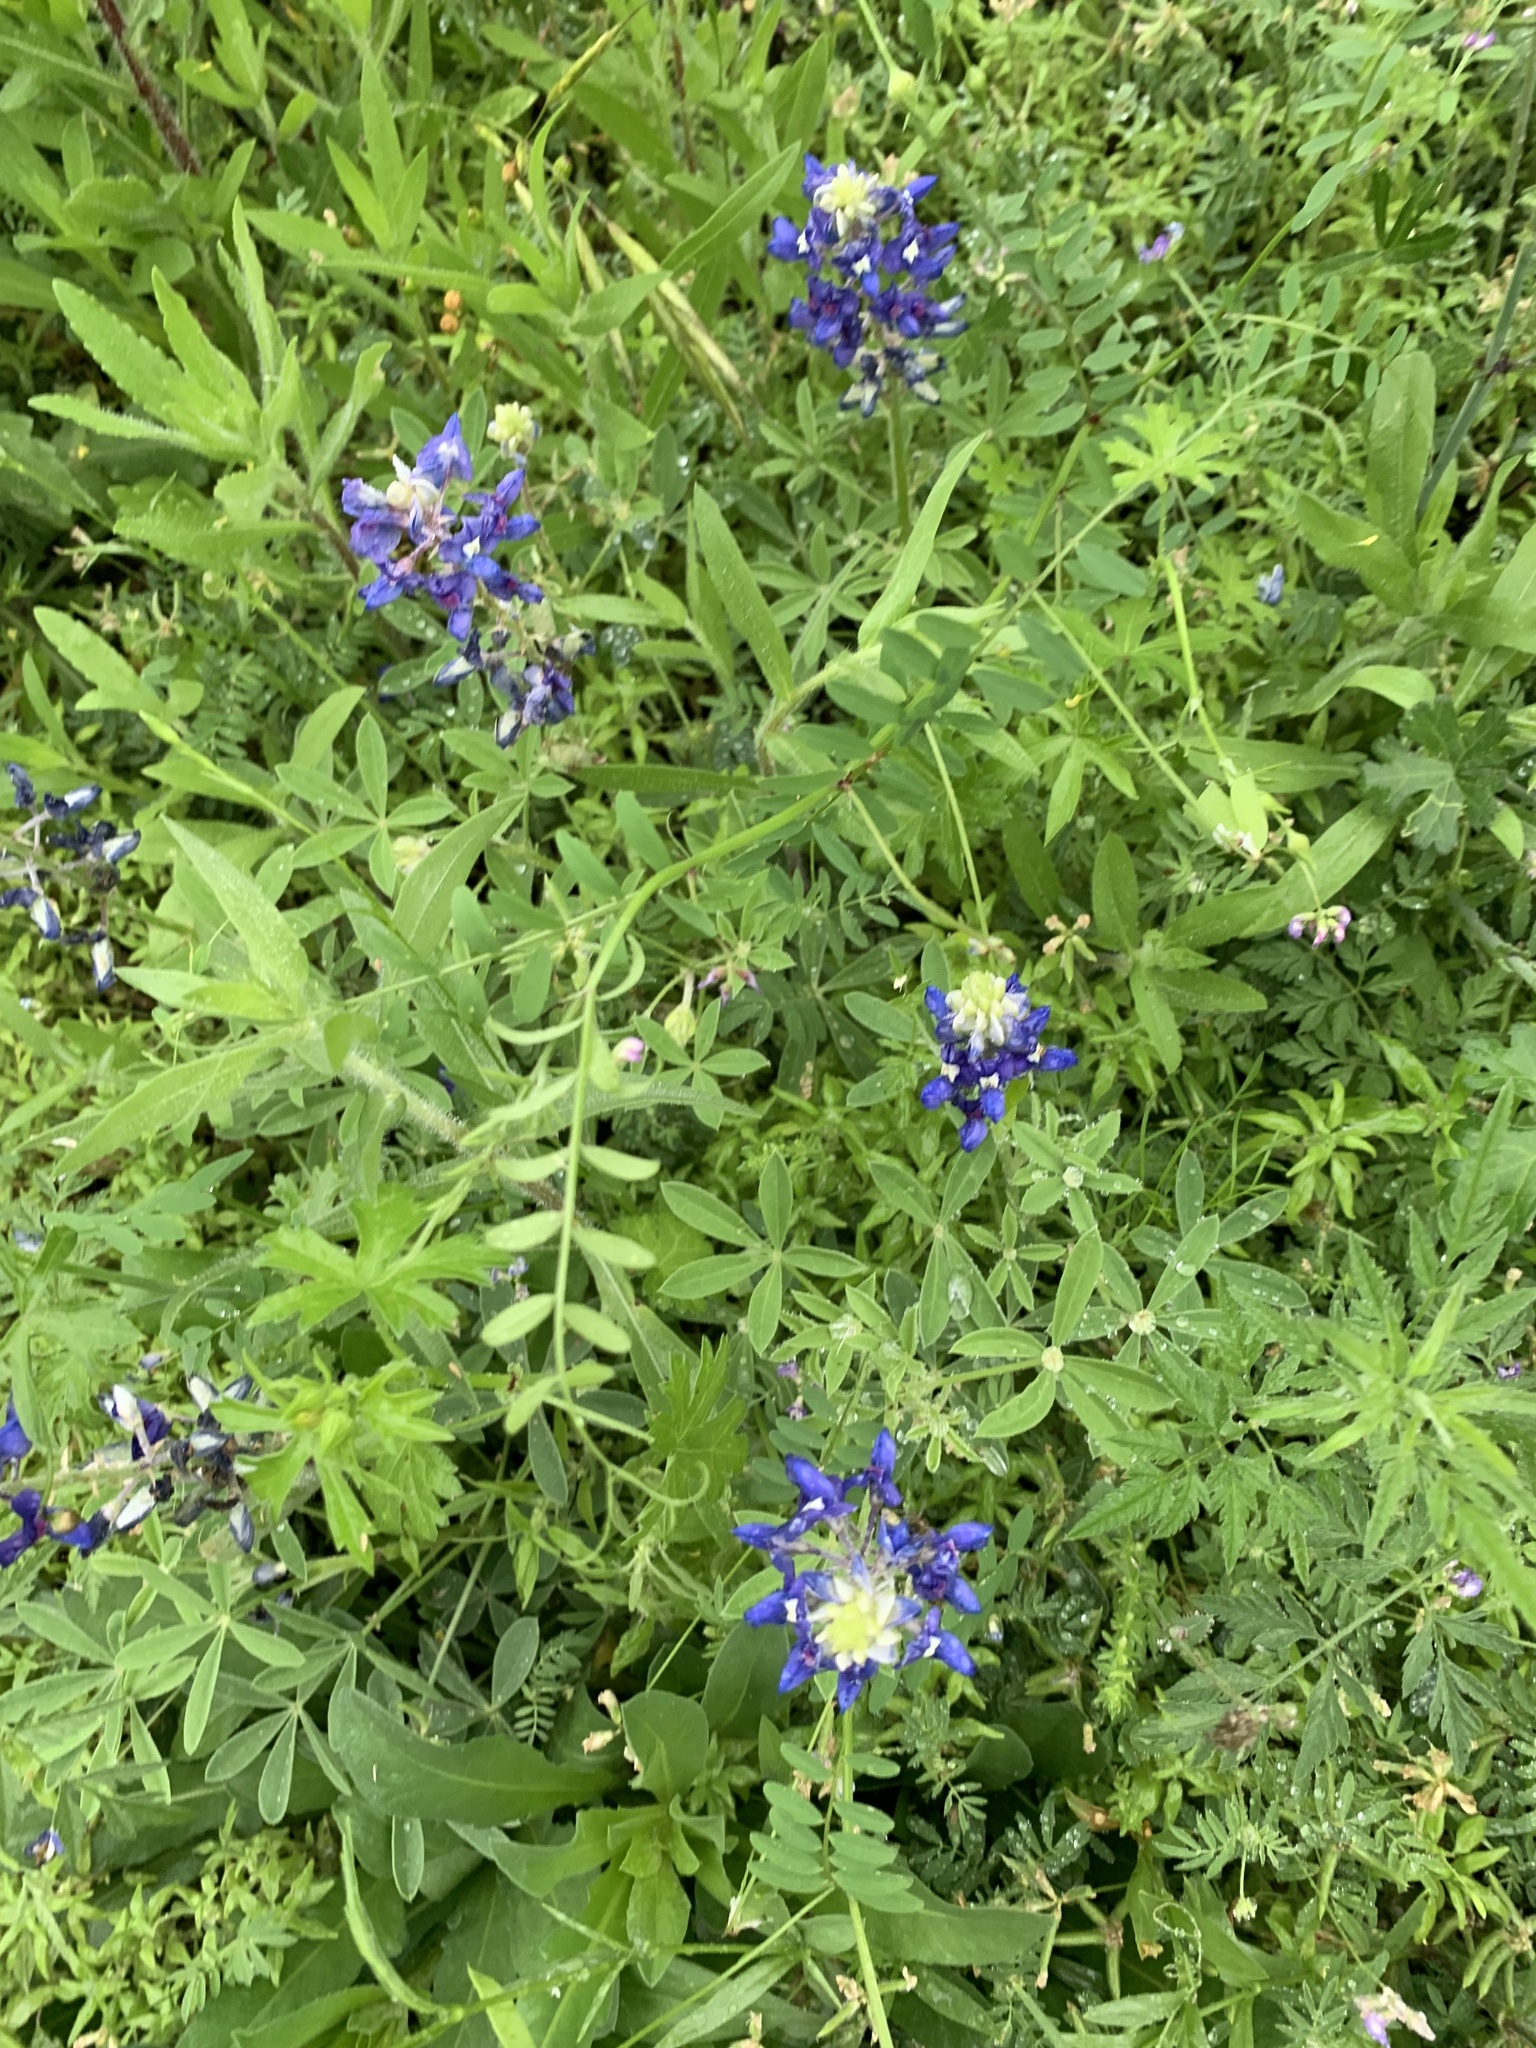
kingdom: Plantae
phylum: Tracheophyta
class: Magnoliopsida
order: Fabales
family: Fabaceae
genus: Lupinus
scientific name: Lupinus texensis
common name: Texas bluebonnet
